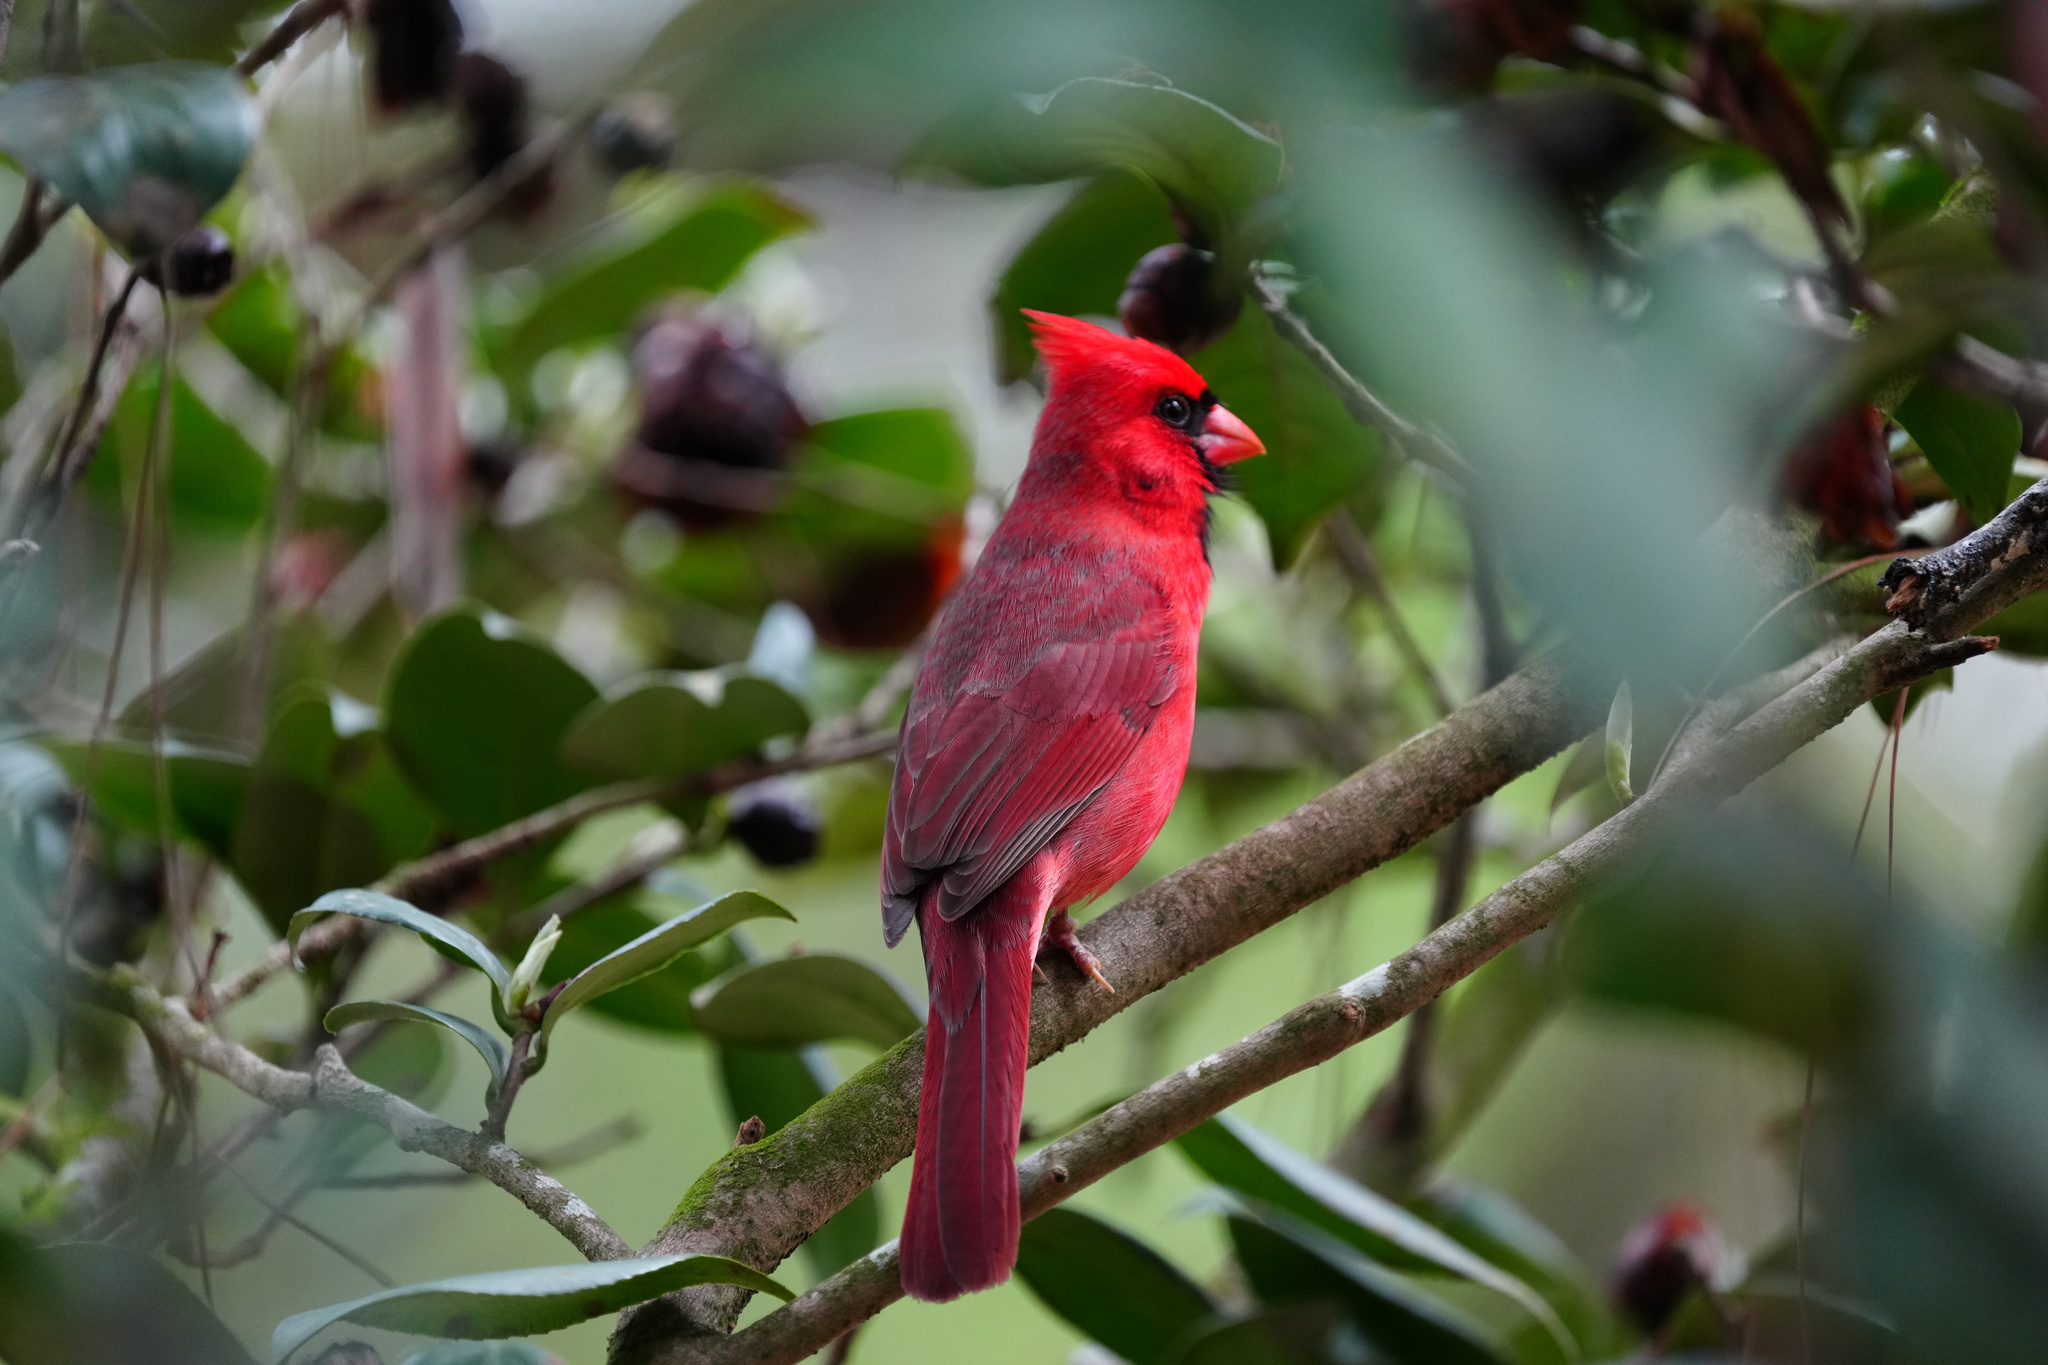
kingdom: Animalia
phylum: Chordata
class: Aves
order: Passeriformes
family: Cardinalidae
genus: Cardinalis
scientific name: Cardinalis cardinalis
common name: Northern cardinal
